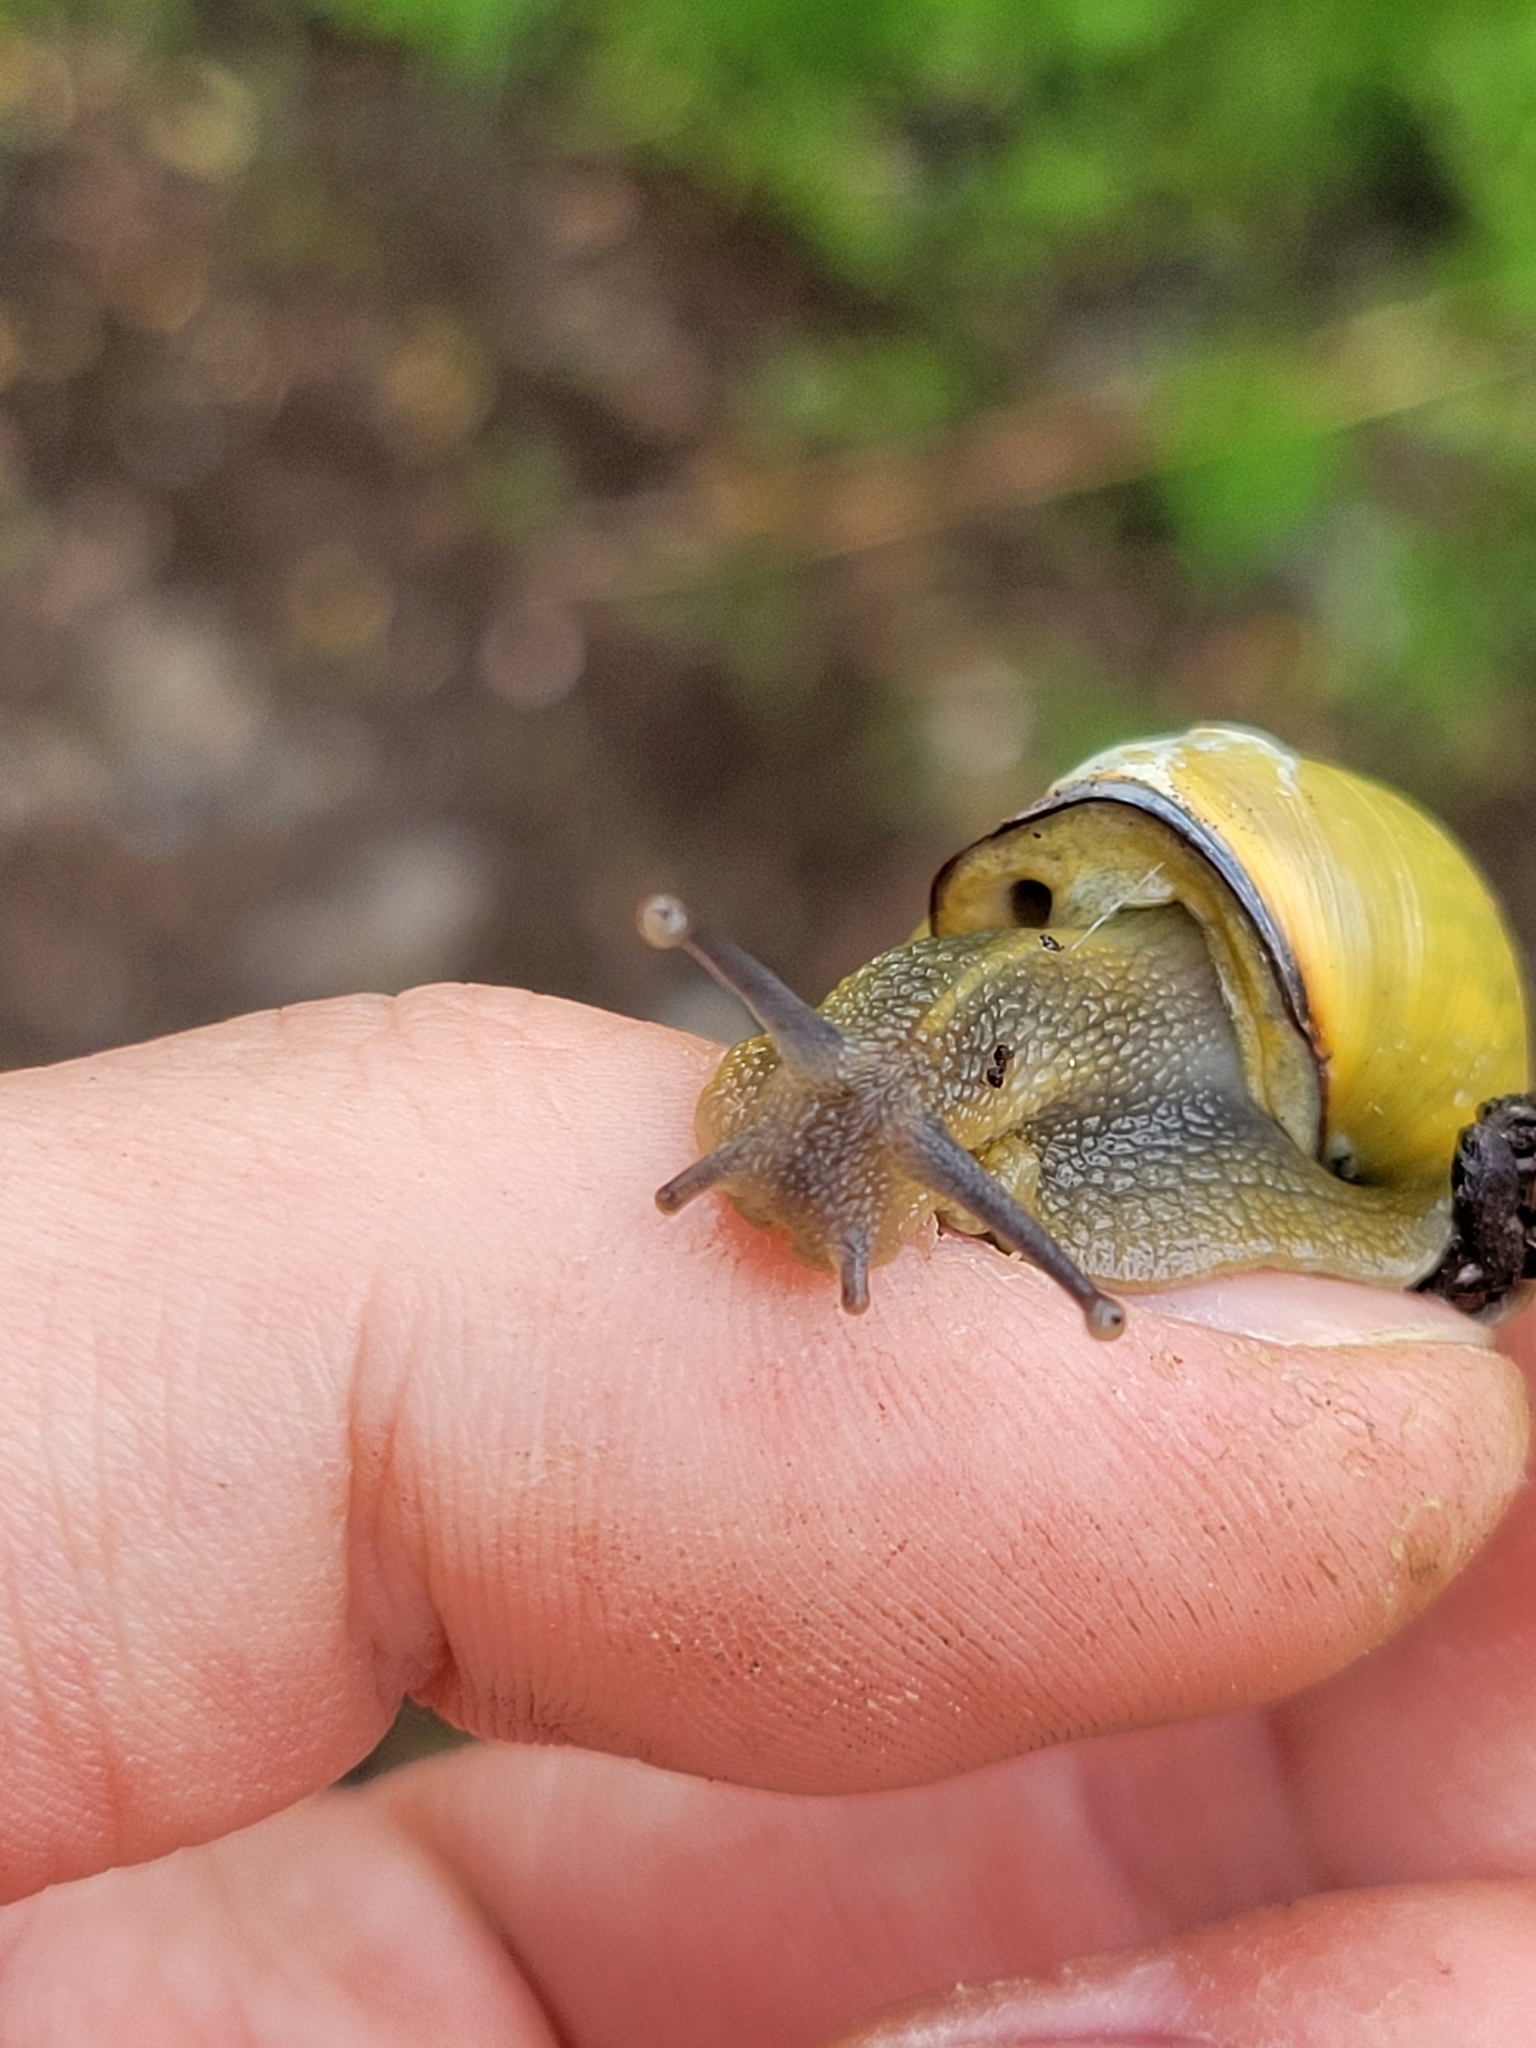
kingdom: Animalia
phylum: Mollusca
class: Gastropoda
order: Stylommatophora
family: Helicidae
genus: Cepaea
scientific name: Cepaea nemoralis
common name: Grovesnail
